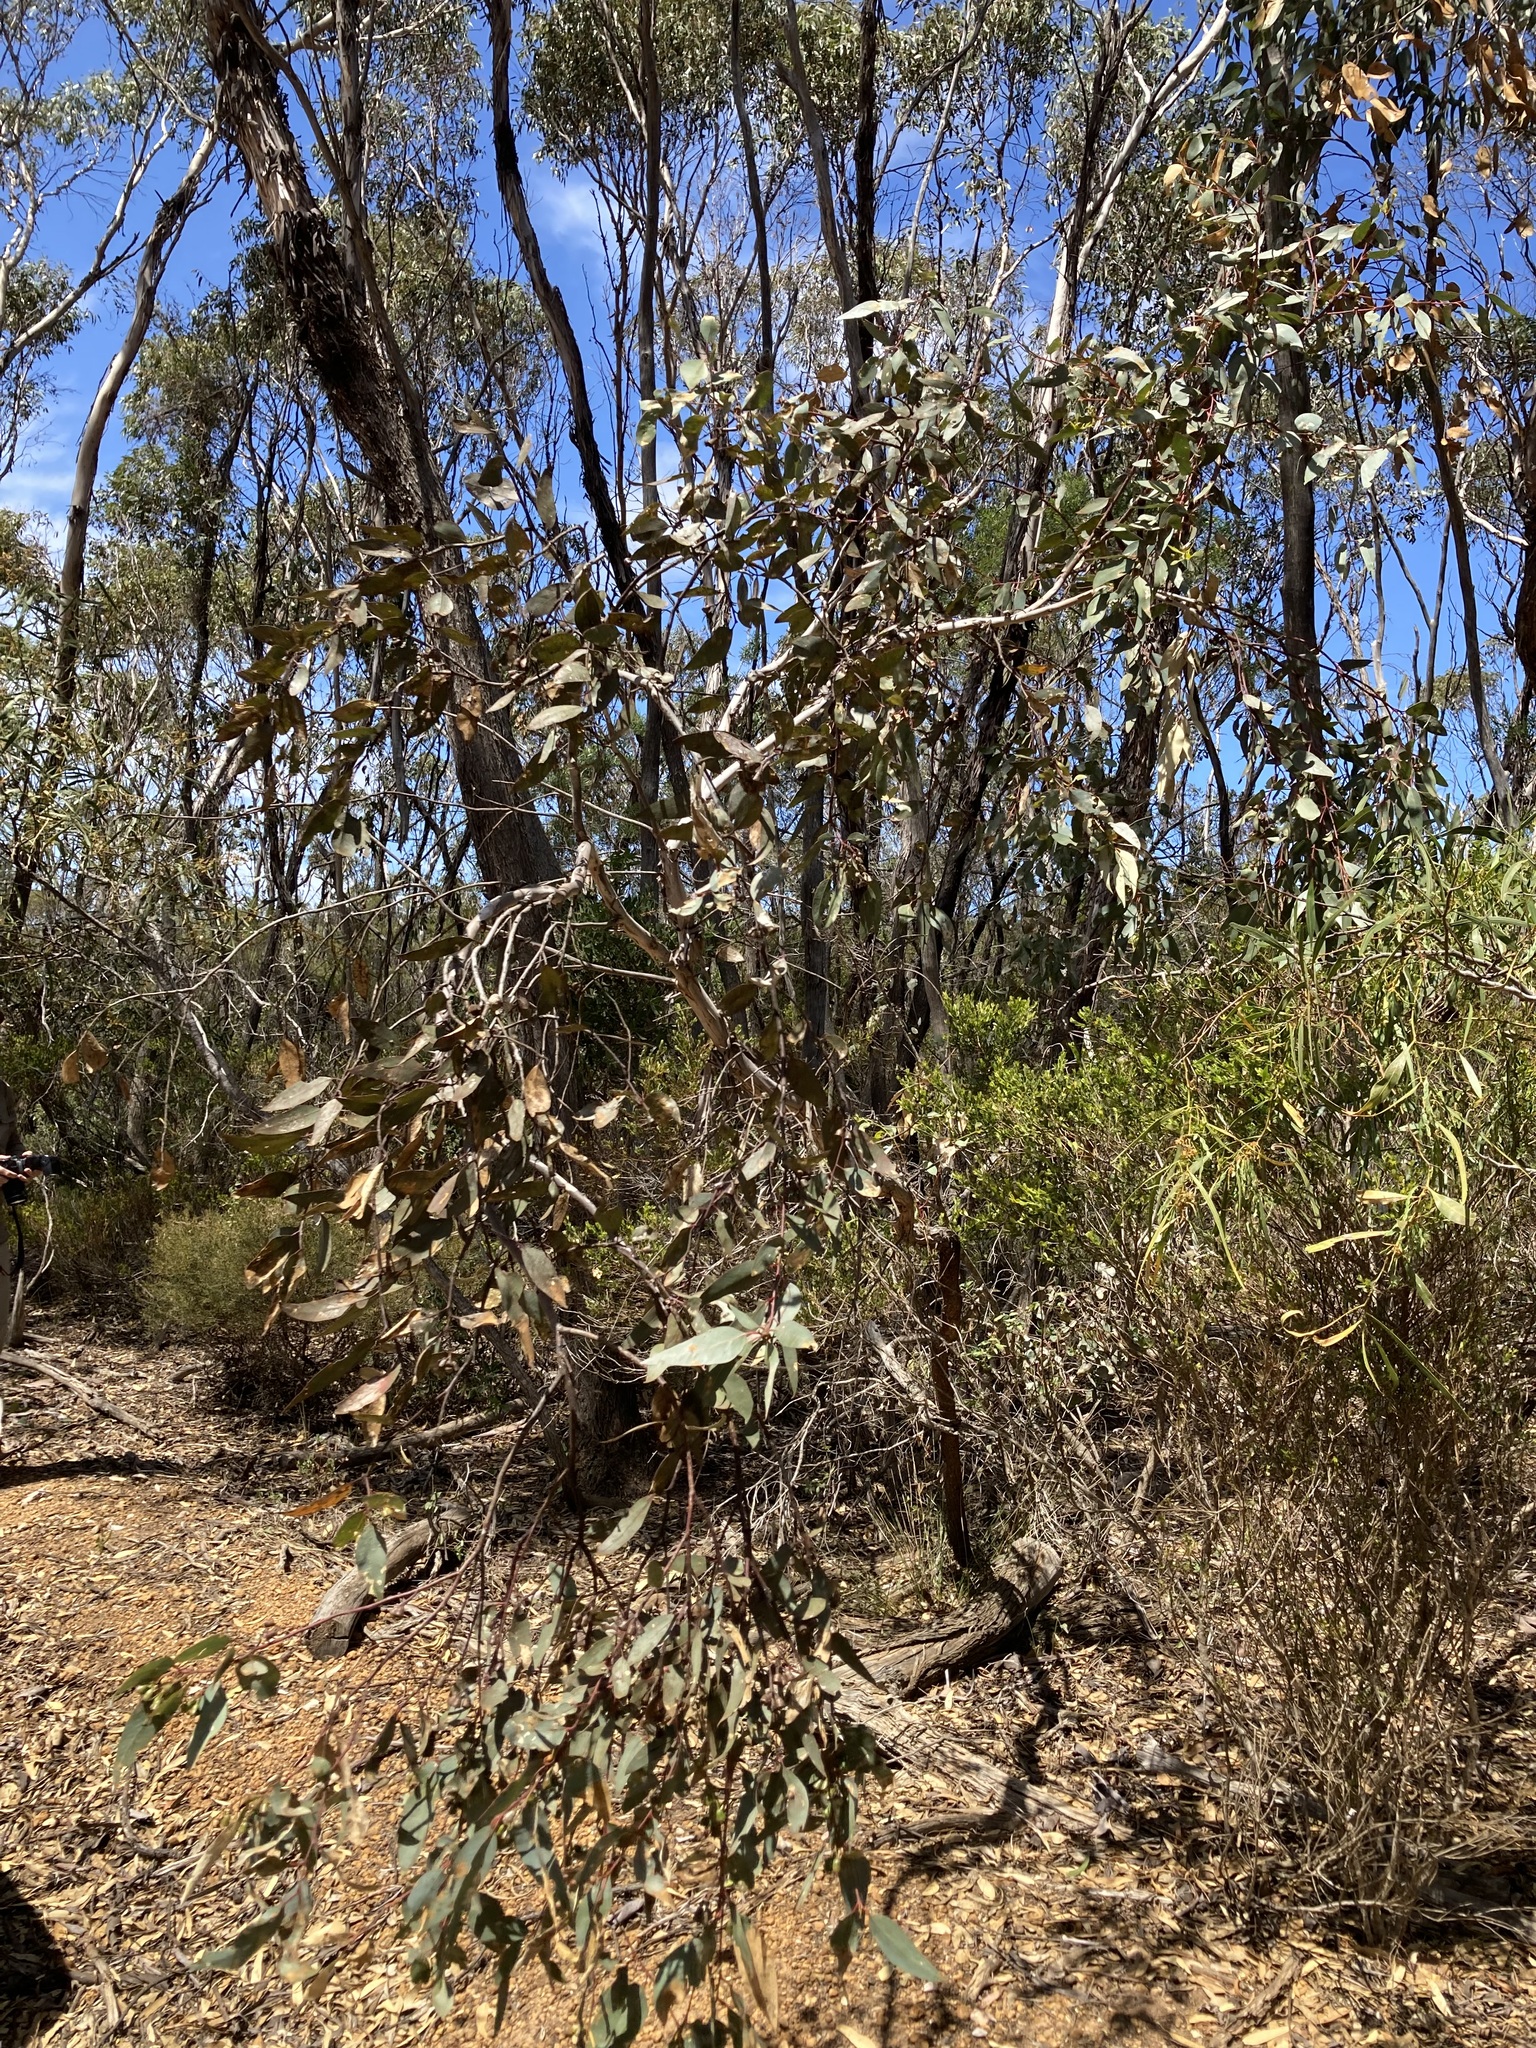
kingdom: Plantae
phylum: Tracheophyta
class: Magnoliopsida
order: Myrtales
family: Myrtaceae
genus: Eucalyptus
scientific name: Eucalyptus occidentalis
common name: Swamp yate
